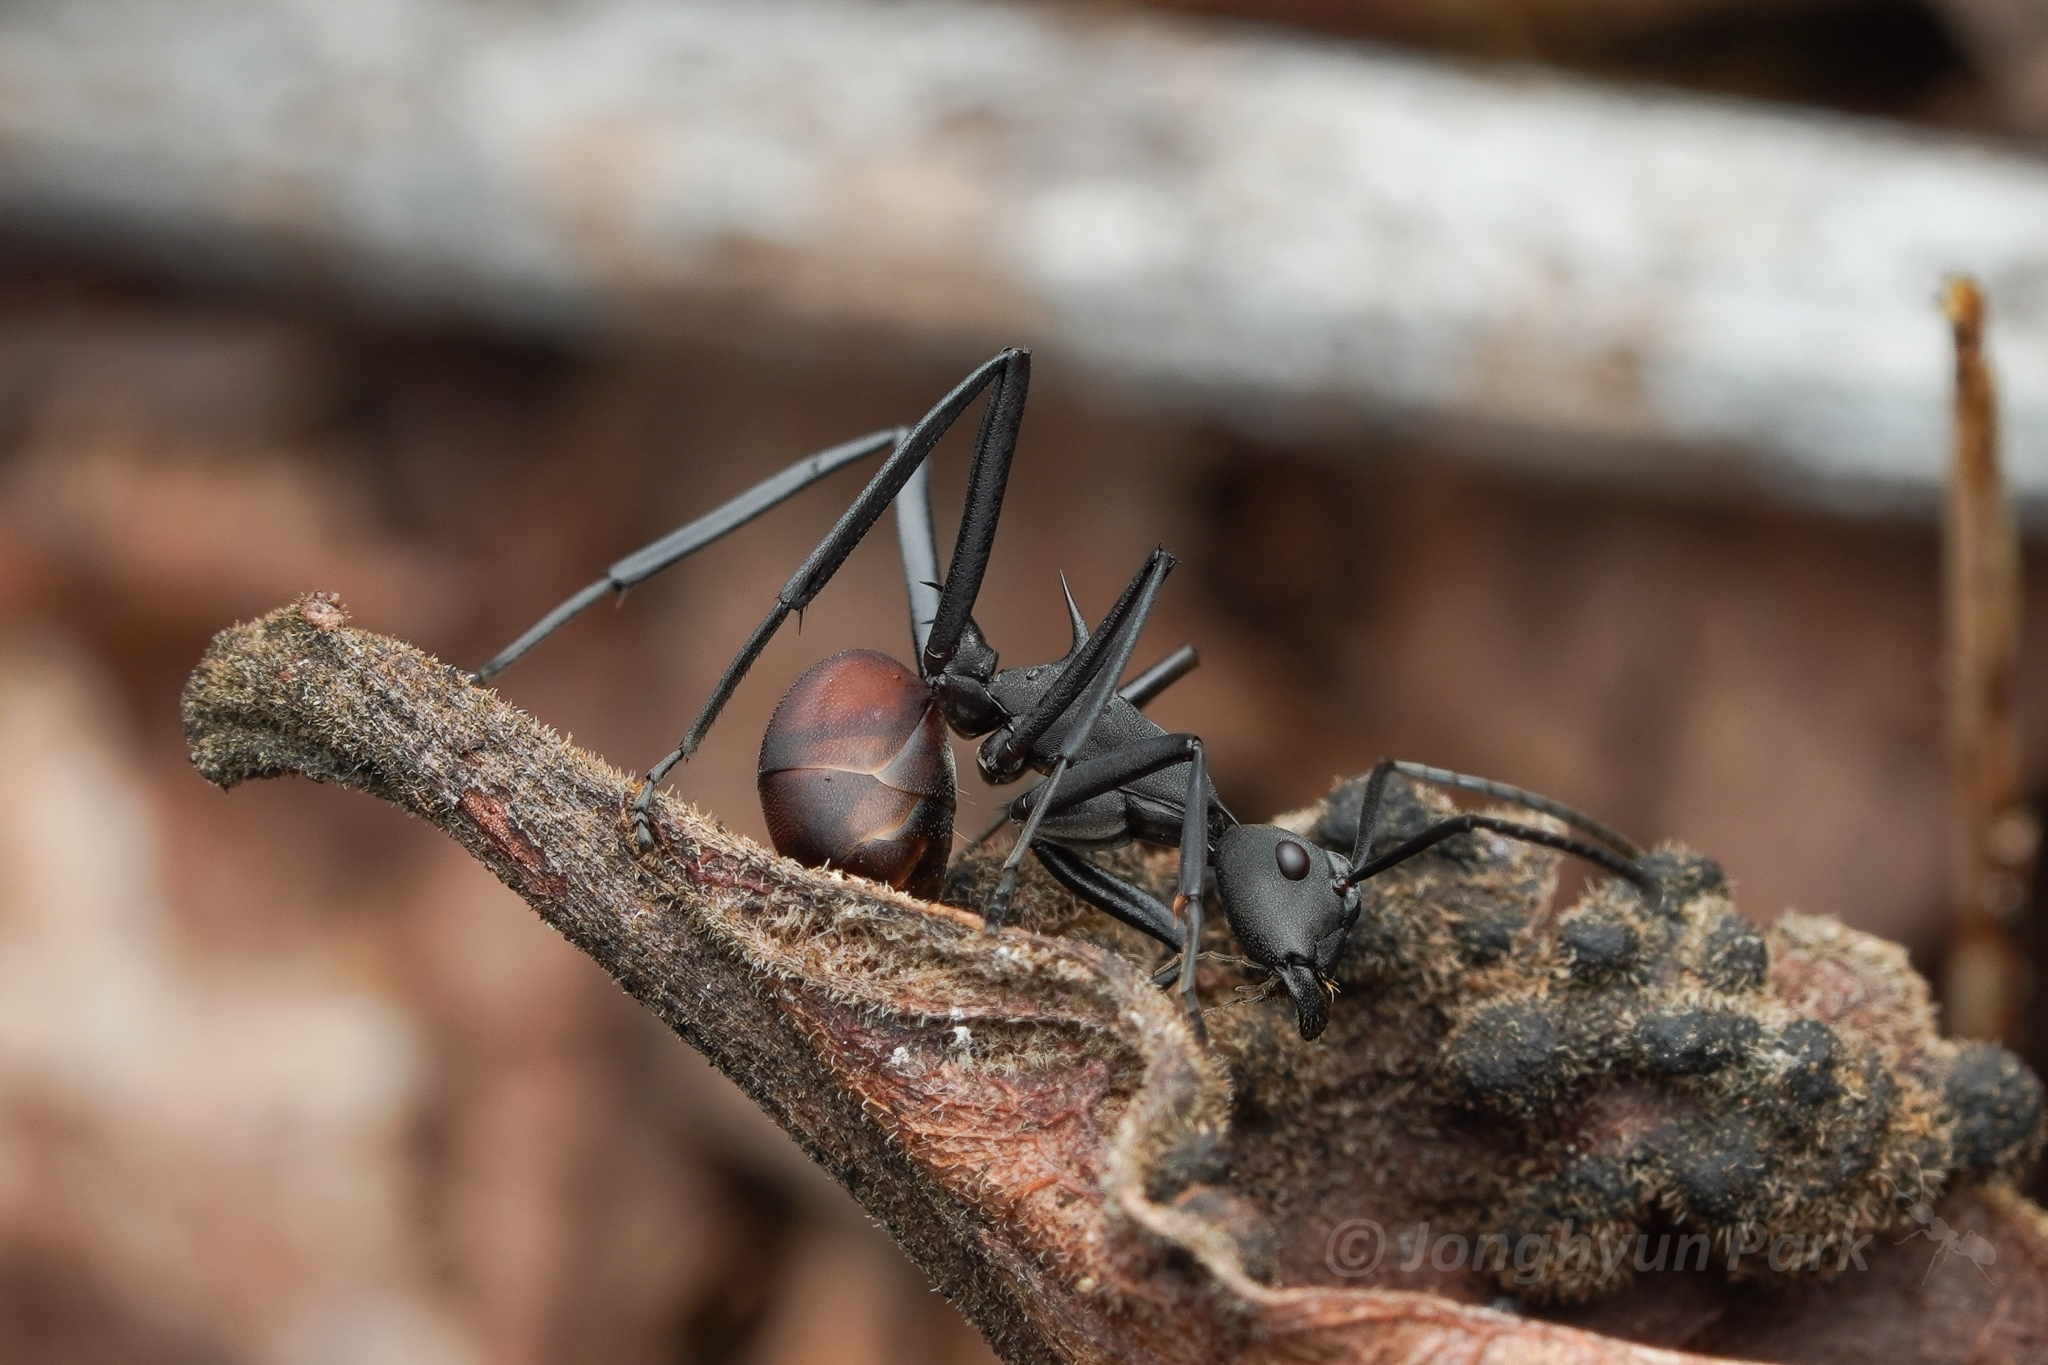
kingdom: Animalia
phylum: Arthropoda
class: Insecta
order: Hymenoptera
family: Formicidae
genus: Polyrhachis
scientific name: Polyrhachis abdominalis
